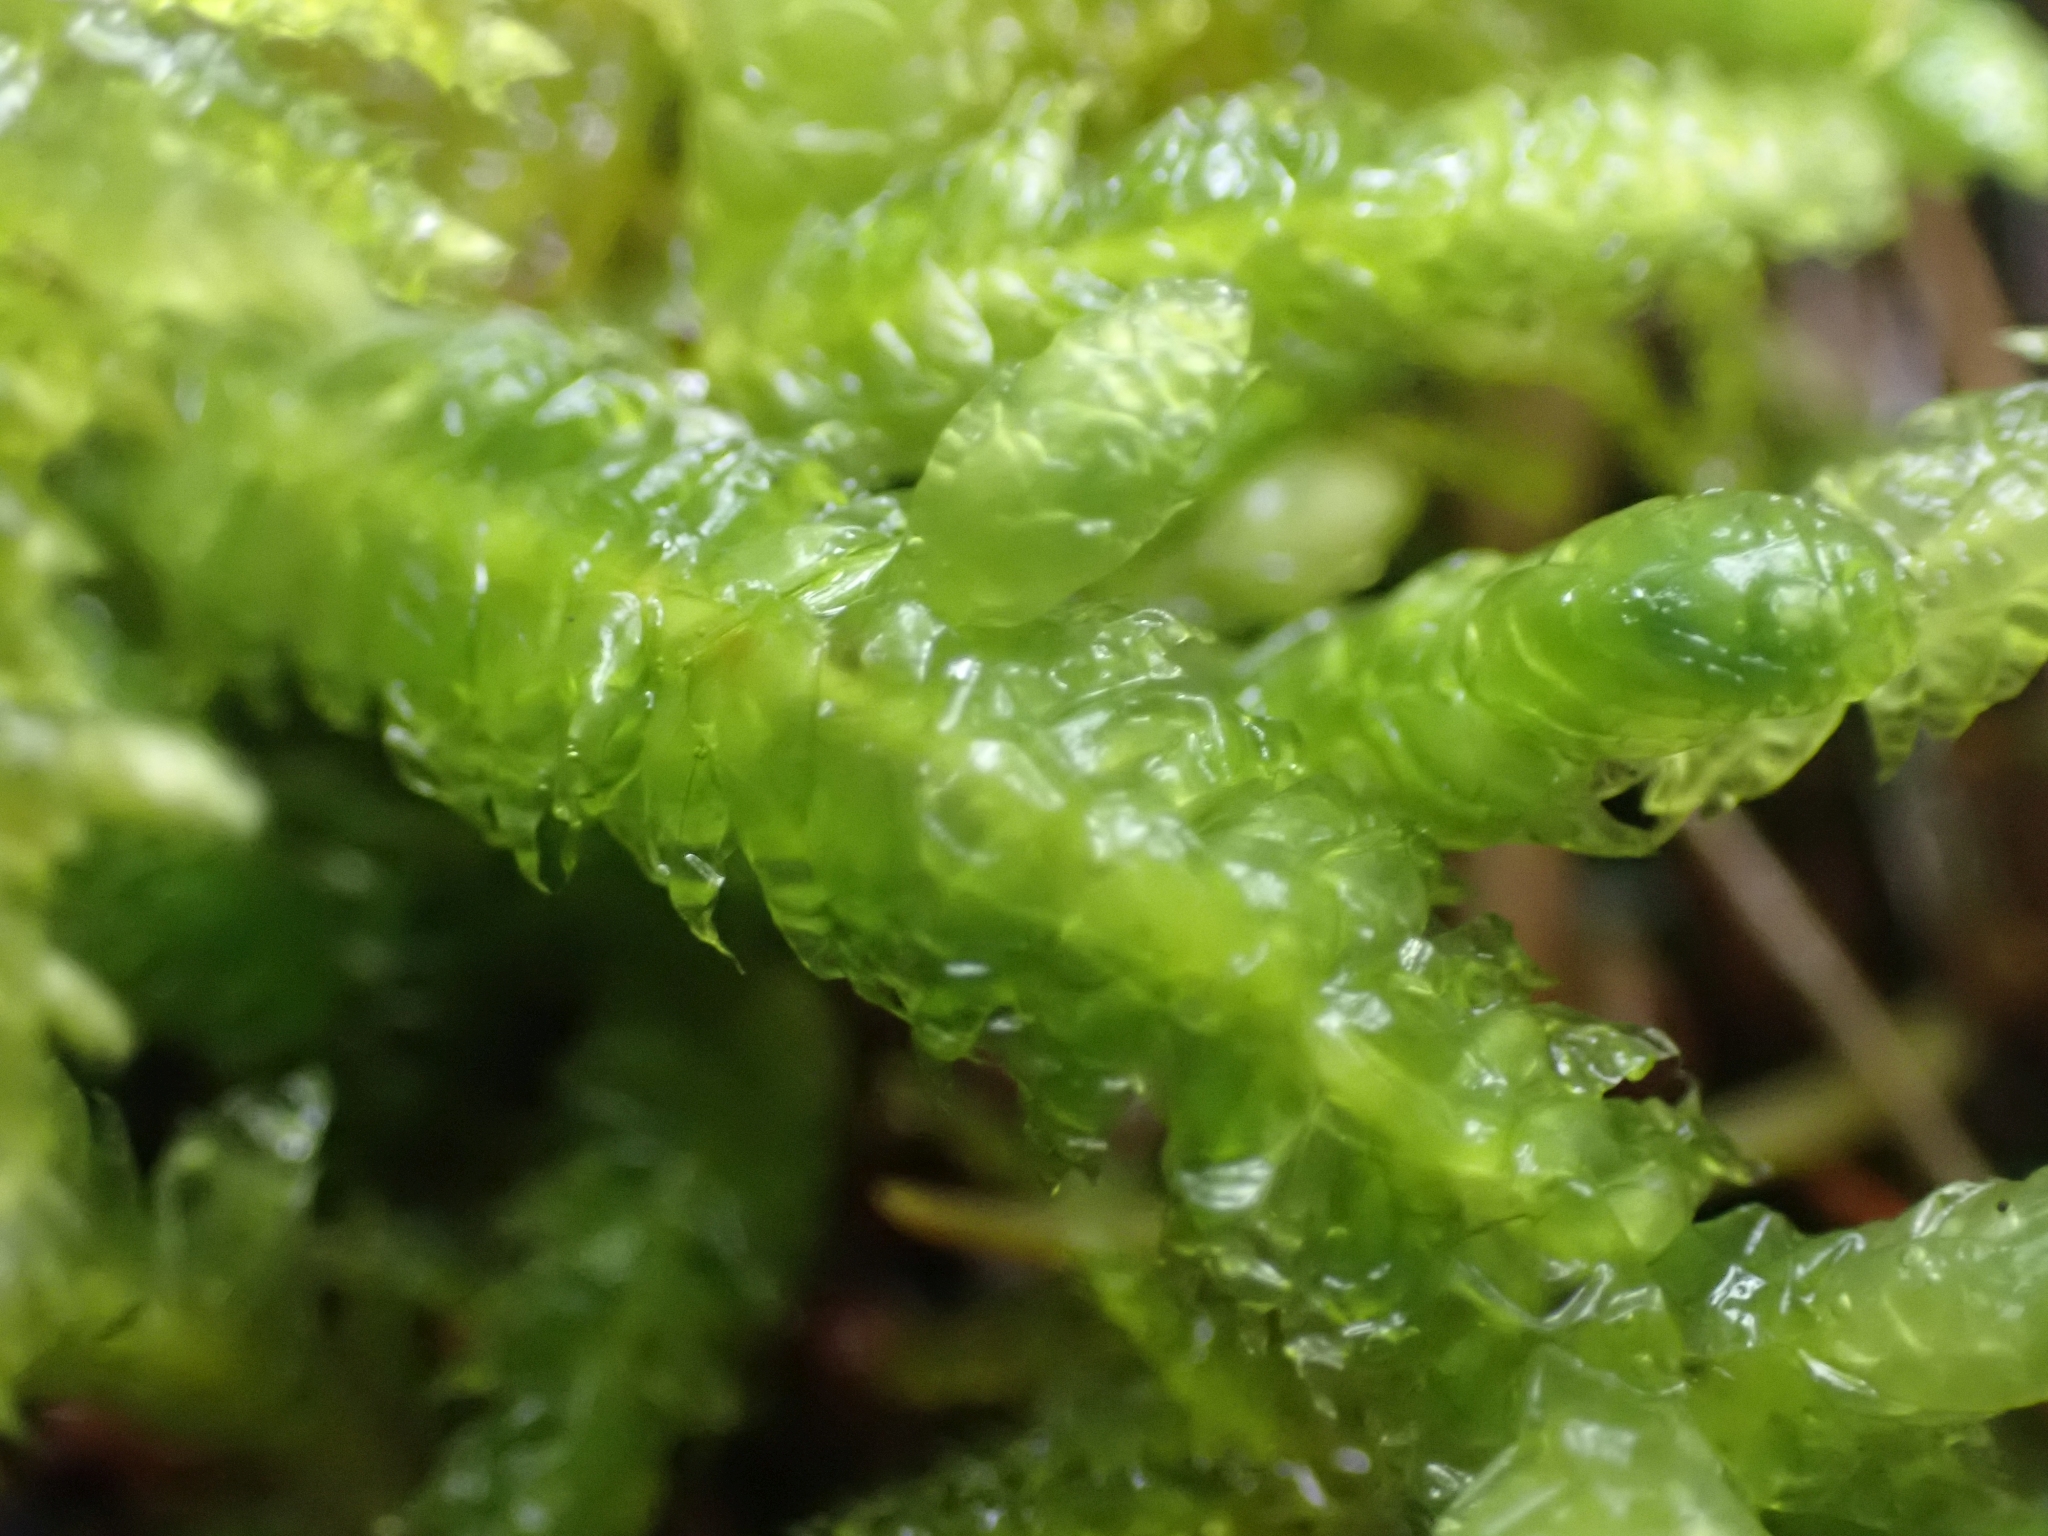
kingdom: Plantae
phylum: Bryophyta
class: Bryopsida
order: Hypnales
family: Plagiotheciaceae
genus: Plagiothecium
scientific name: Plagiothecium undulatum
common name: Waved silk-moss
